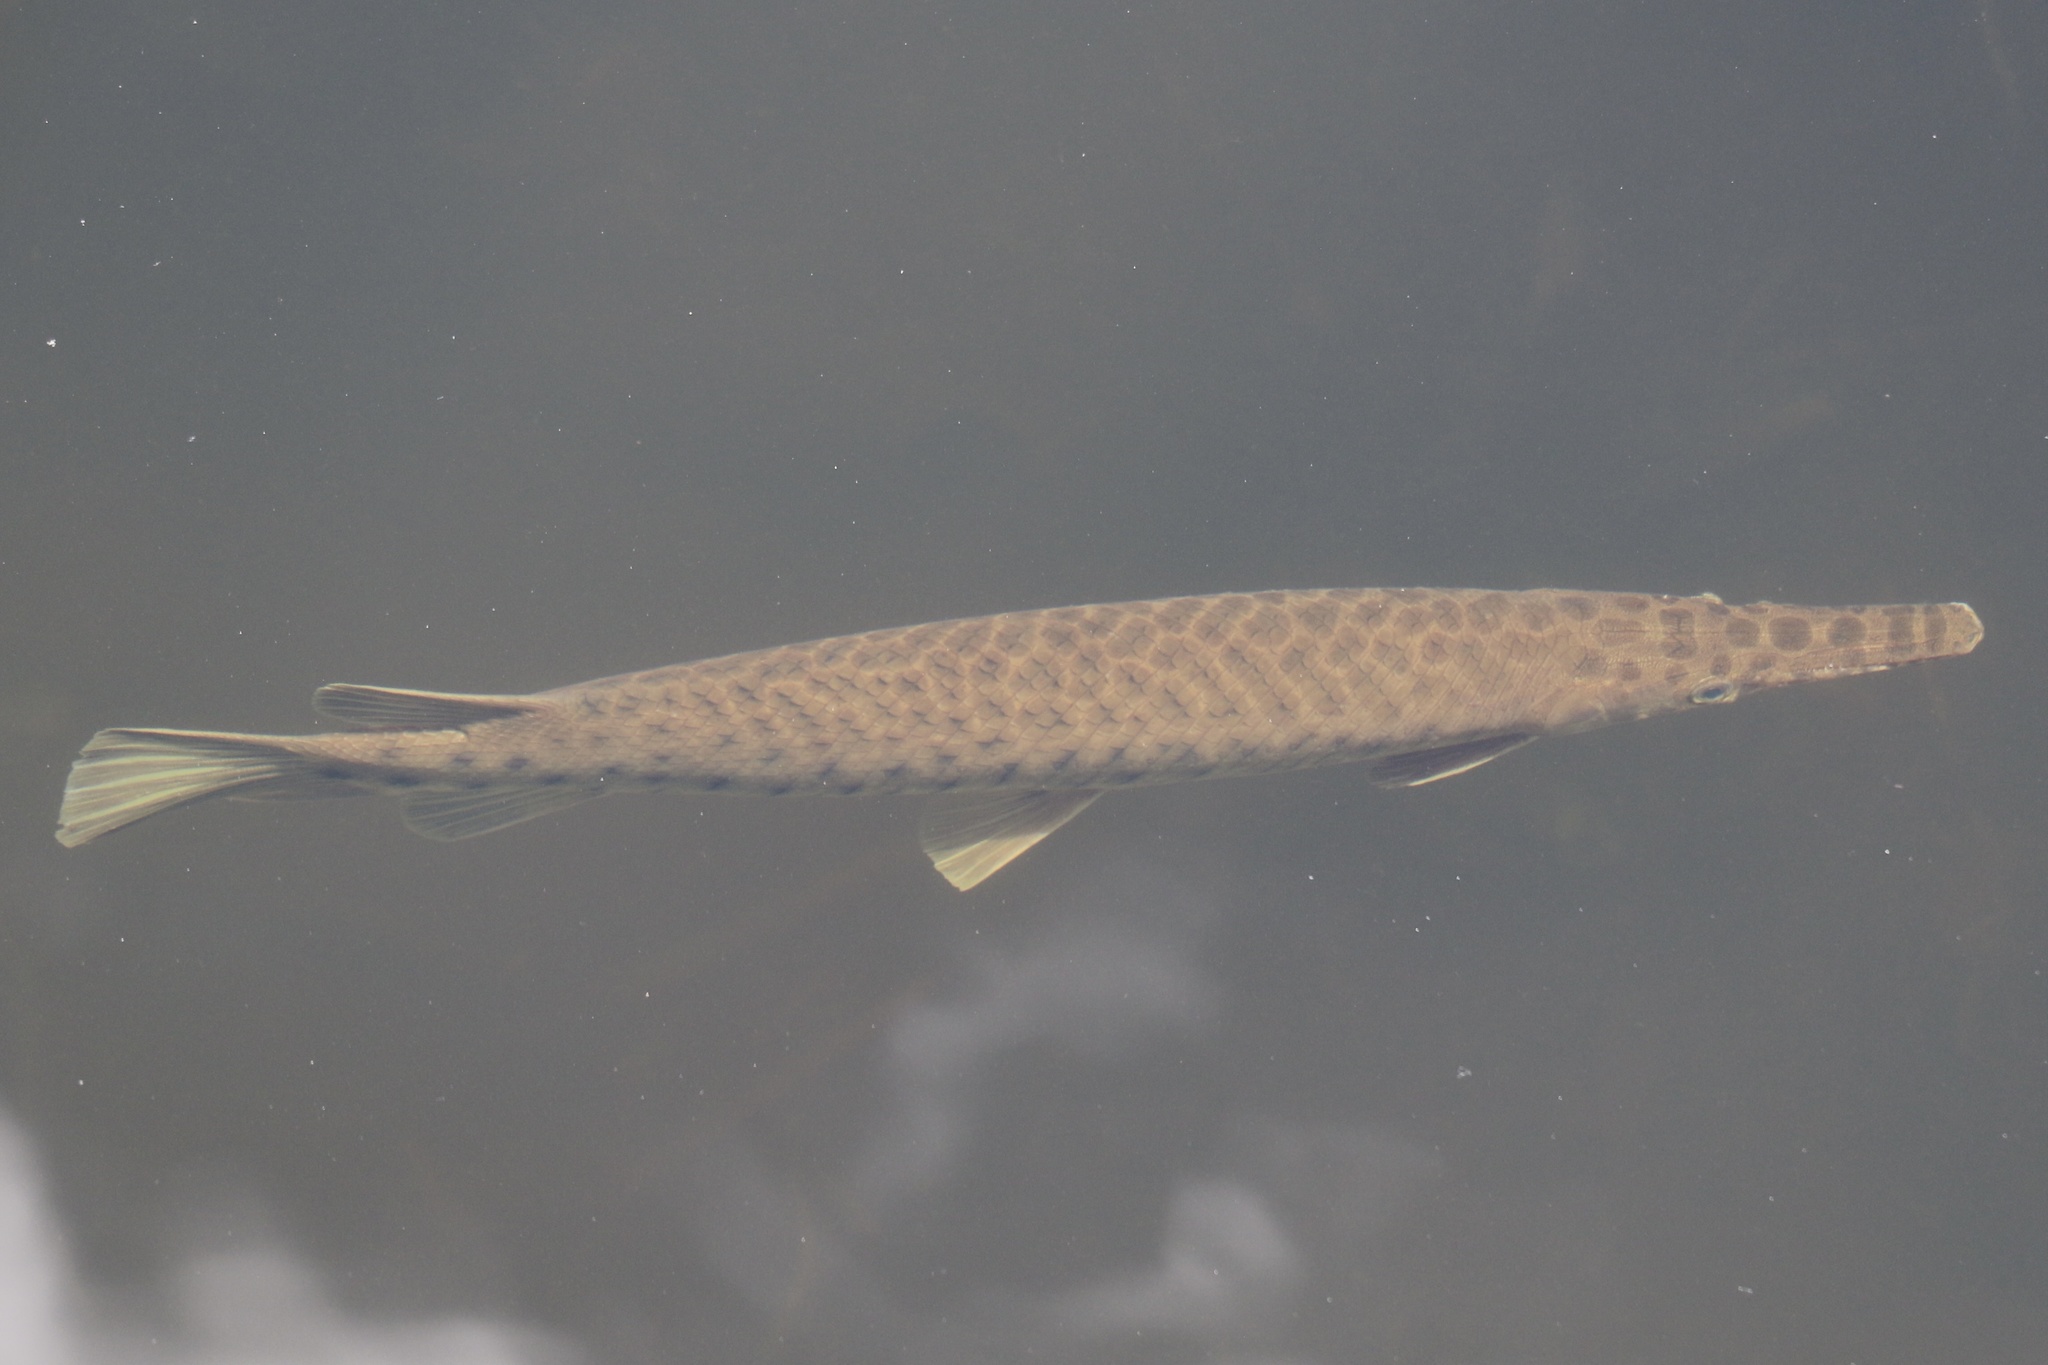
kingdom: Animalia
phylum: Chordata
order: Lepisosteiformes
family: Lepisosteidae
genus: Lepisosteus
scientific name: Lepisosteus platyrhincus
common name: Florida gar
